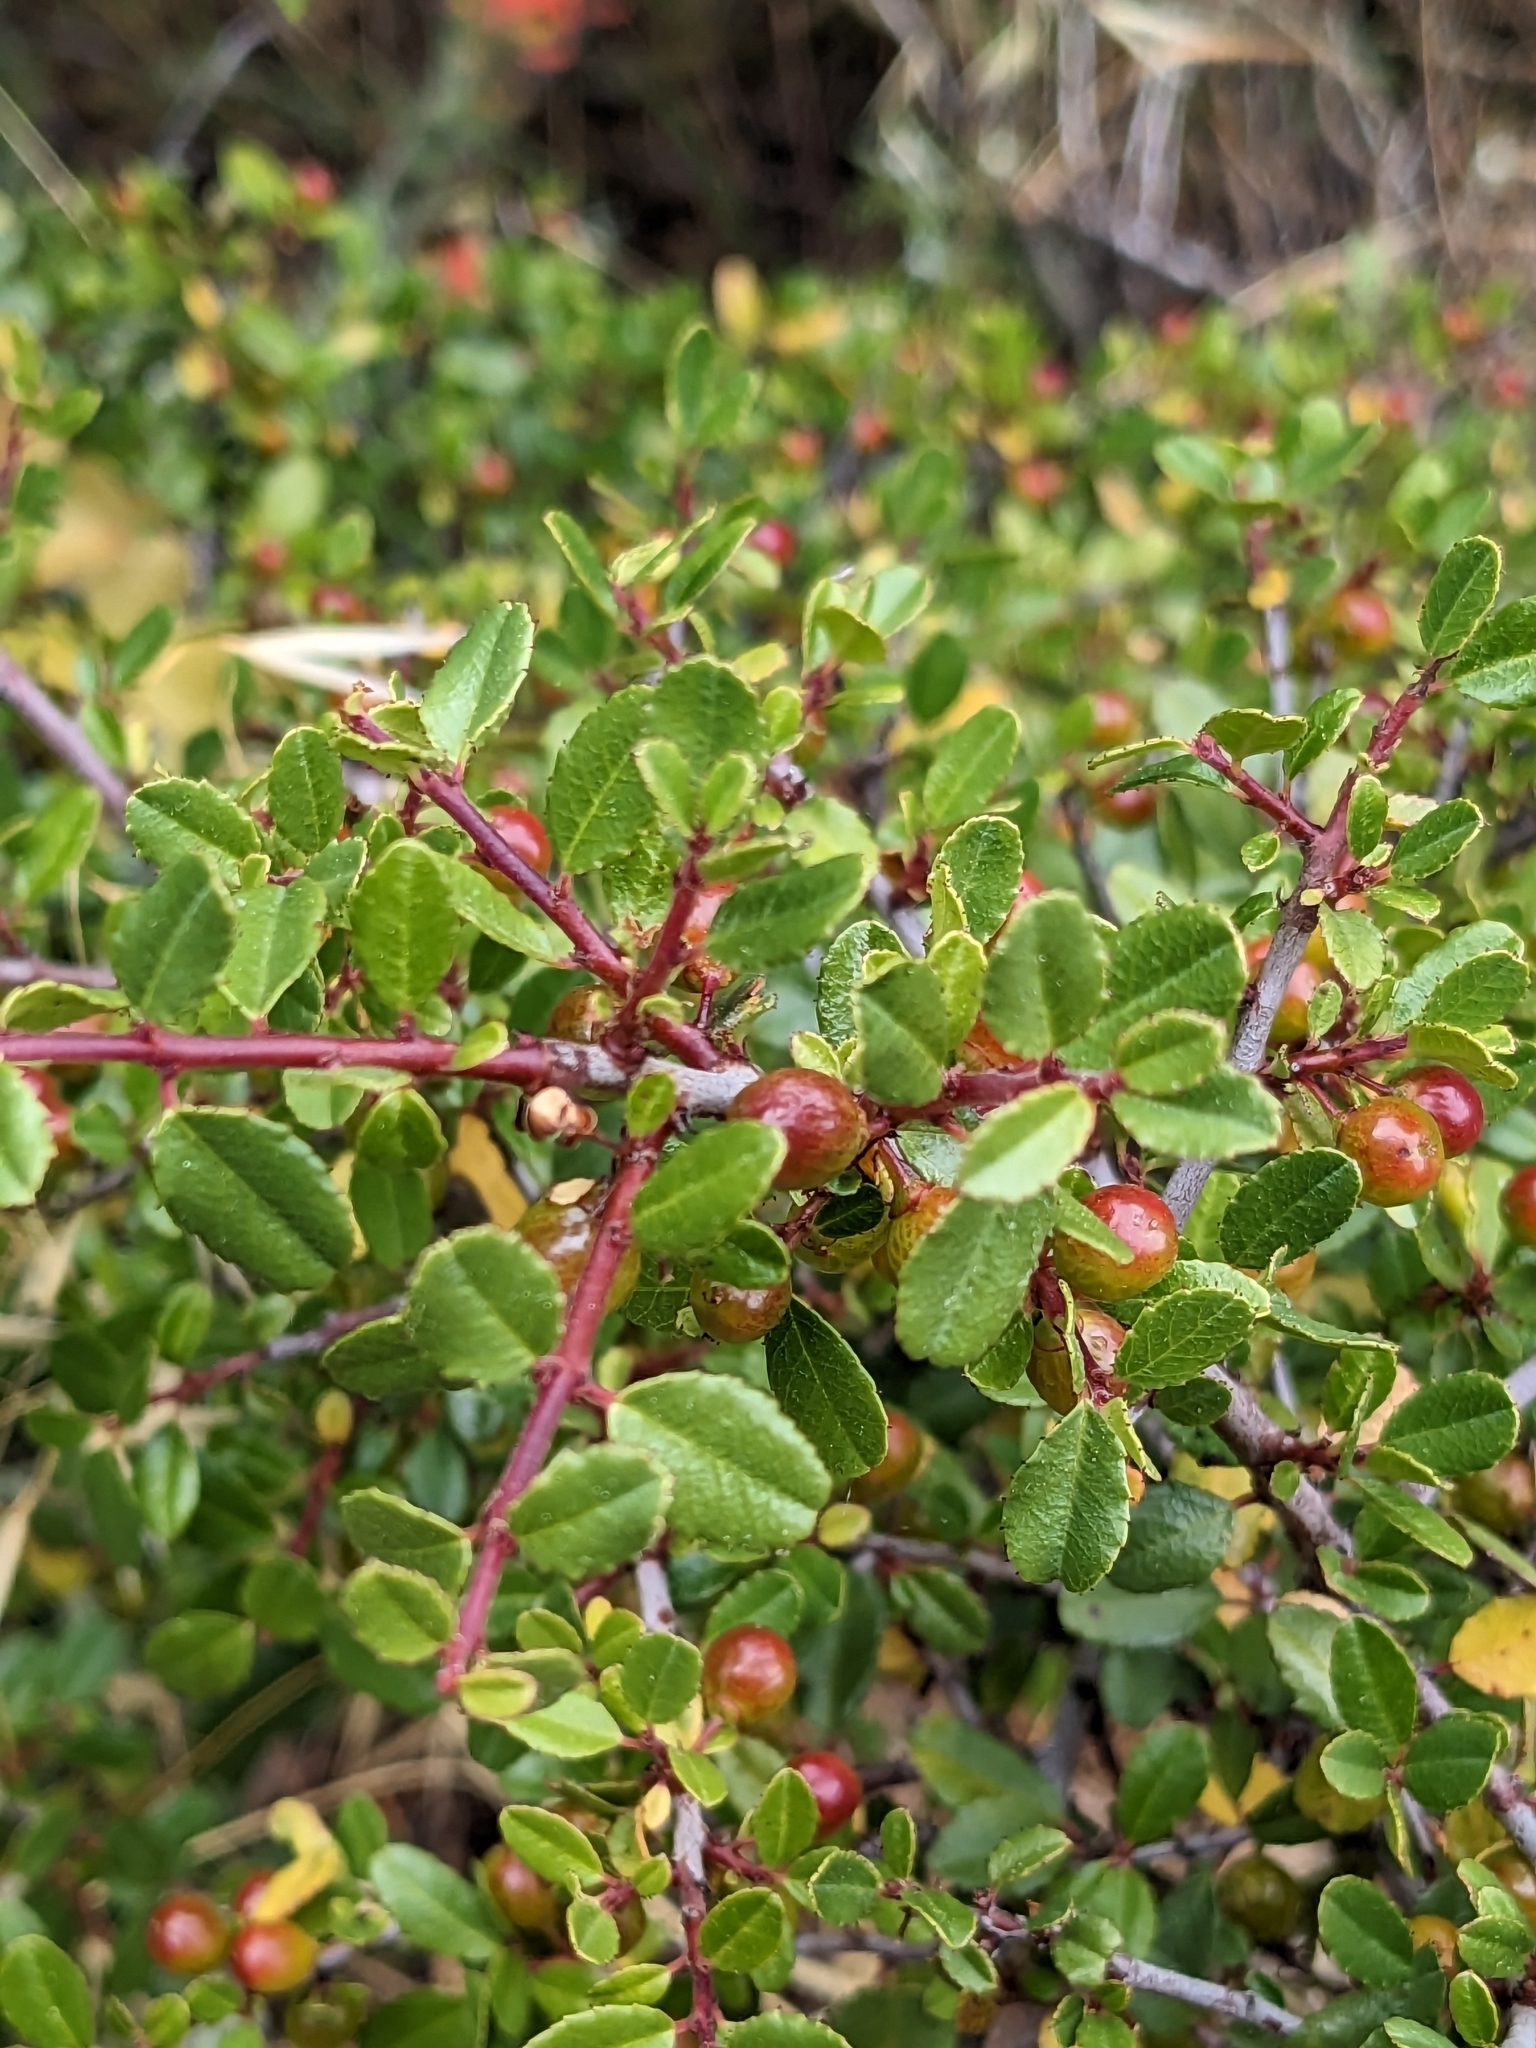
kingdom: Plantae
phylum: Tracheophyta
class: Magnoliopsida
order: Rosales
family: Rhamnaceae
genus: Endotropis
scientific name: Endotropis crocea
